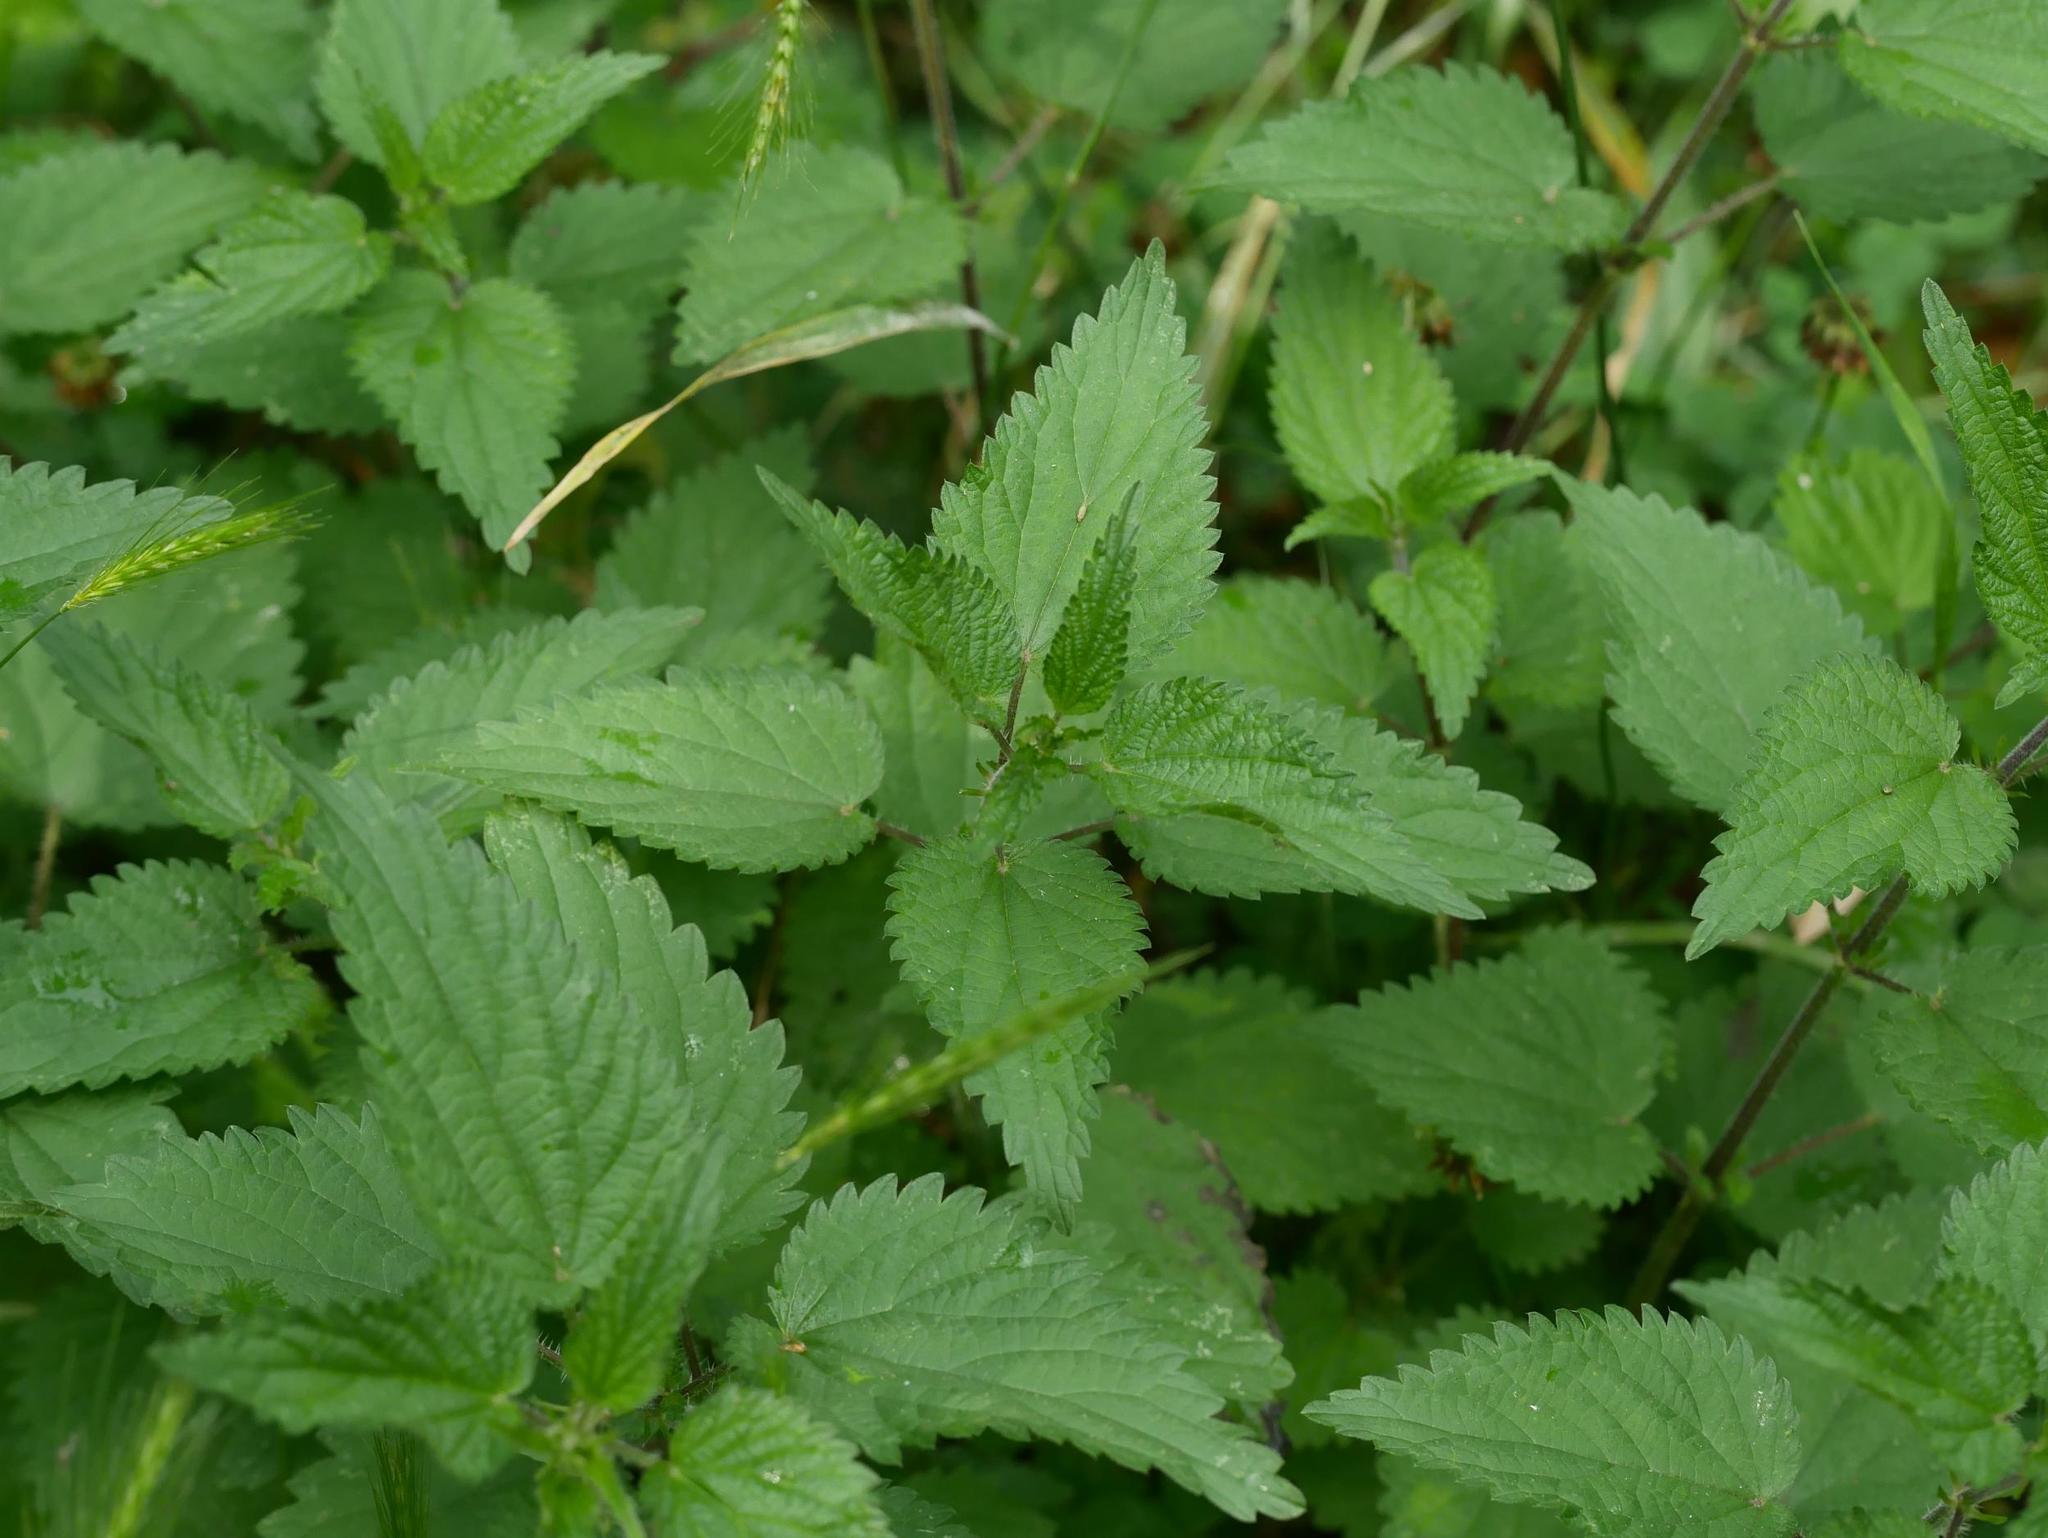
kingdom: Plantae
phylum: Tracheophyta
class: Magnoliopsida
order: Rosales
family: Urticaceae
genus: Urtica
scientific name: Urtica dioica
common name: Common nettle
